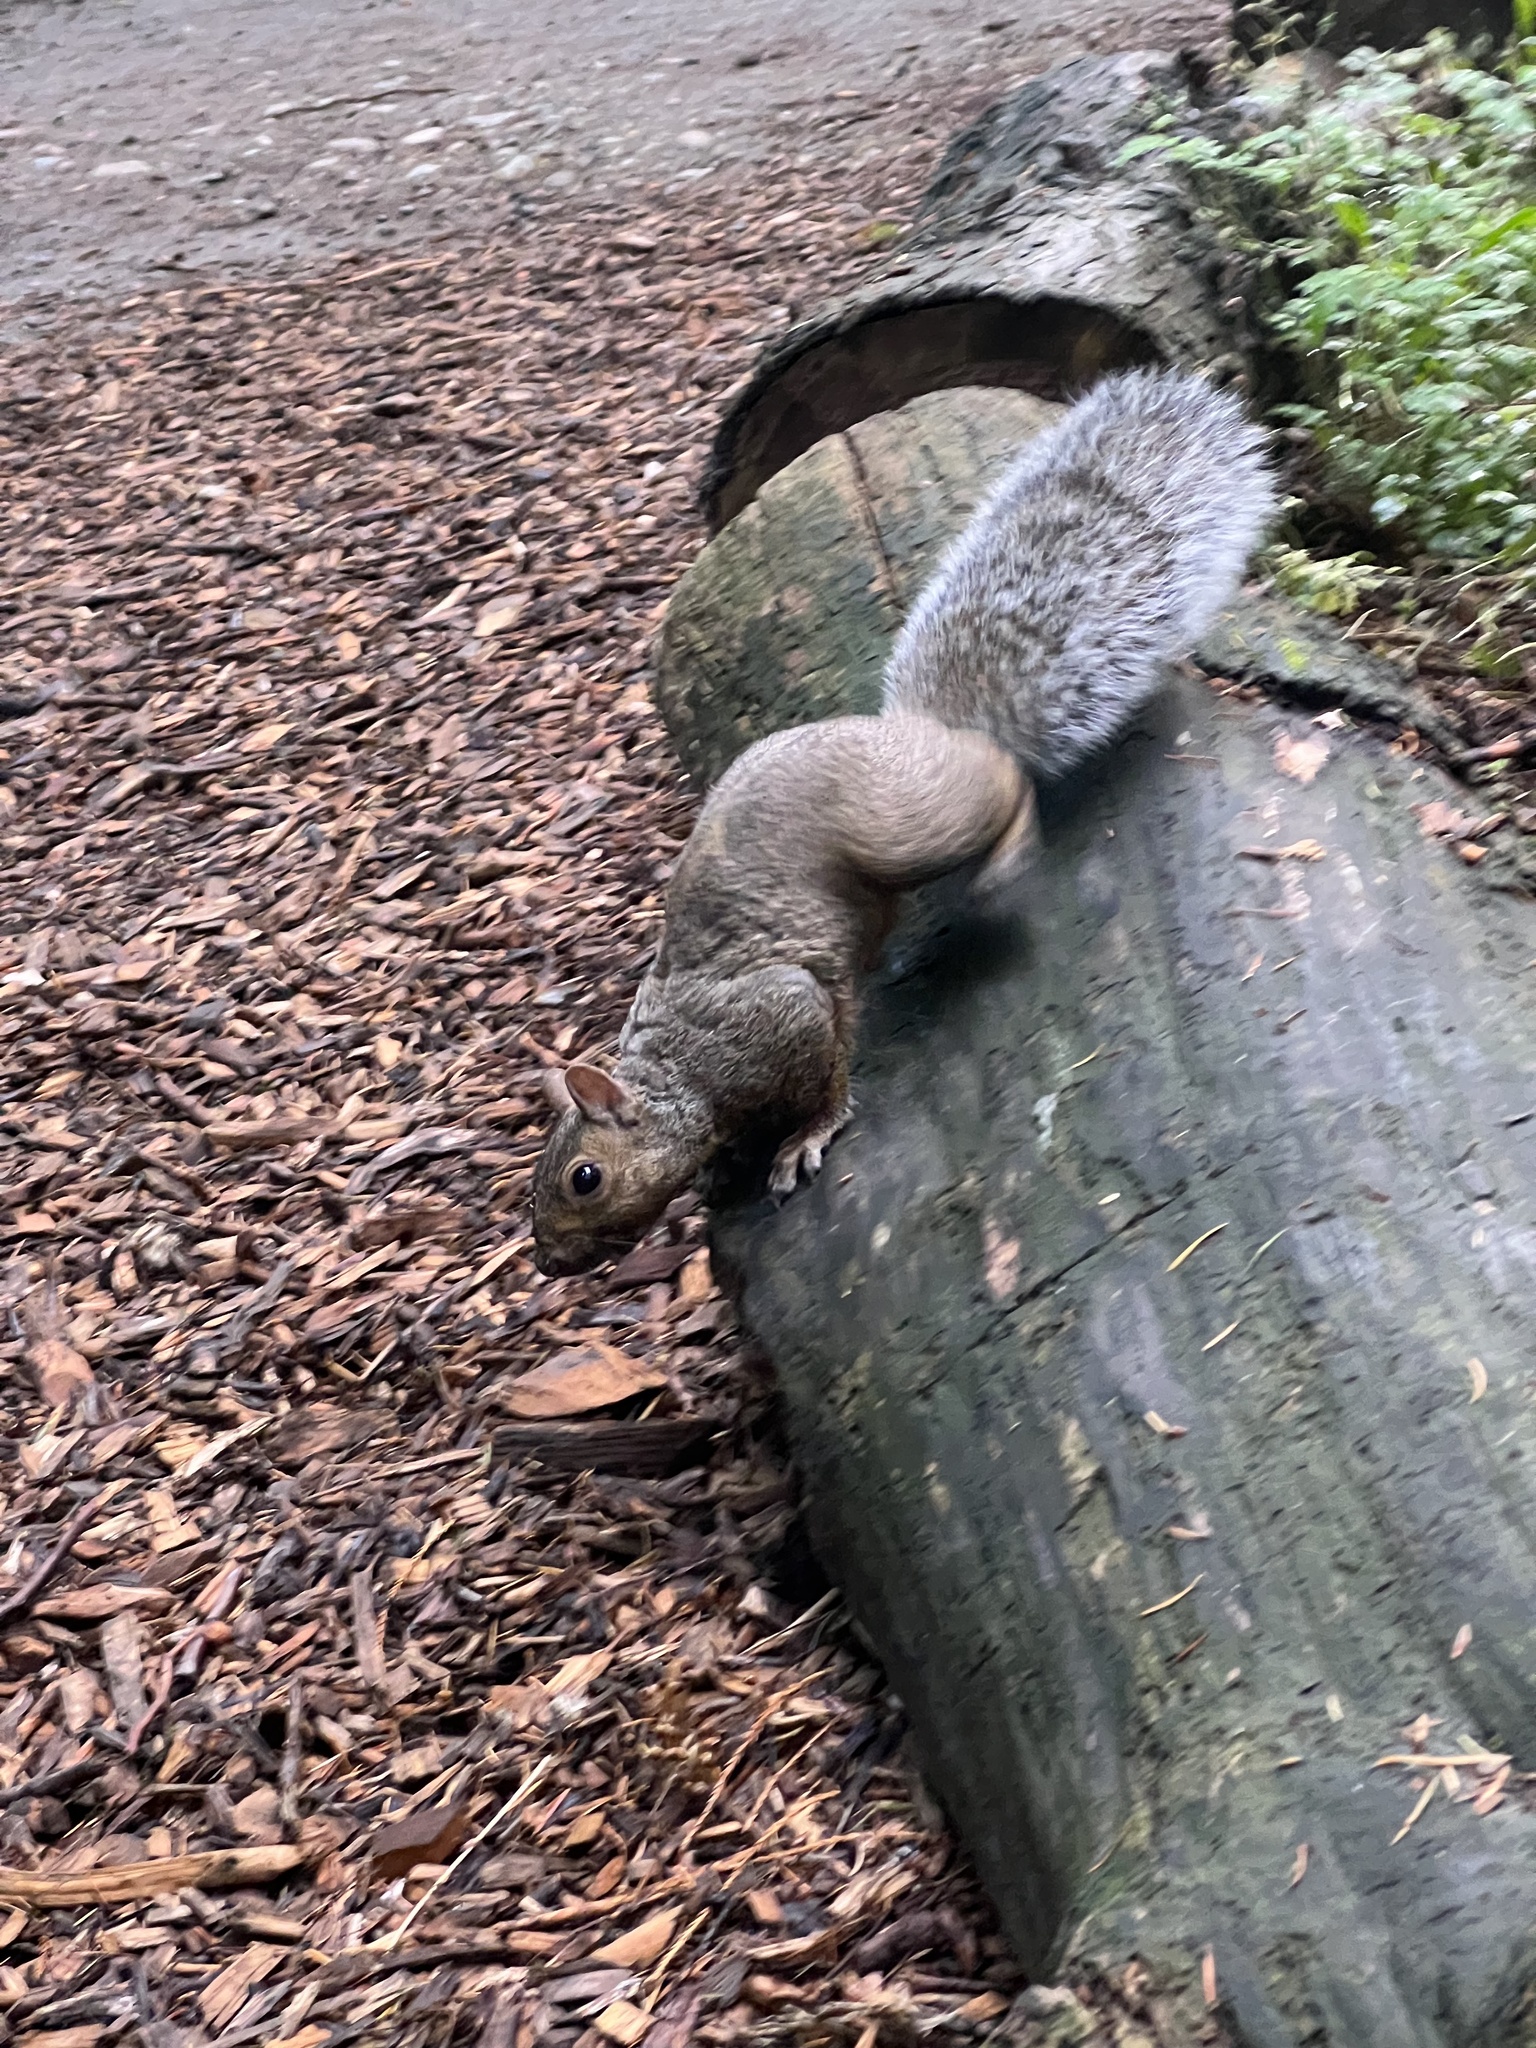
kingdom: Animalia
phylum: Chordata
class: Mammalia
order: Rodentia
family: Sciuridae
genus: Sciurus
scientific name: Sciurus carolinensis
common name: Eastern gray squirrel
